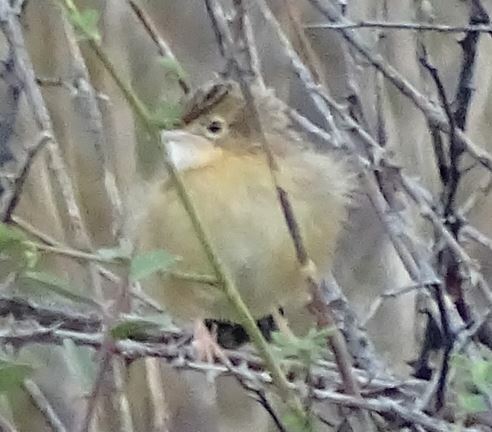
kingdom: Animalia
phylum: Chordata
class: Aves
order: Passeriformes
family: Cisticolidae
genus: Cisticola
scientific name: Cisticola juncidis
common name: Zitting cisticola
